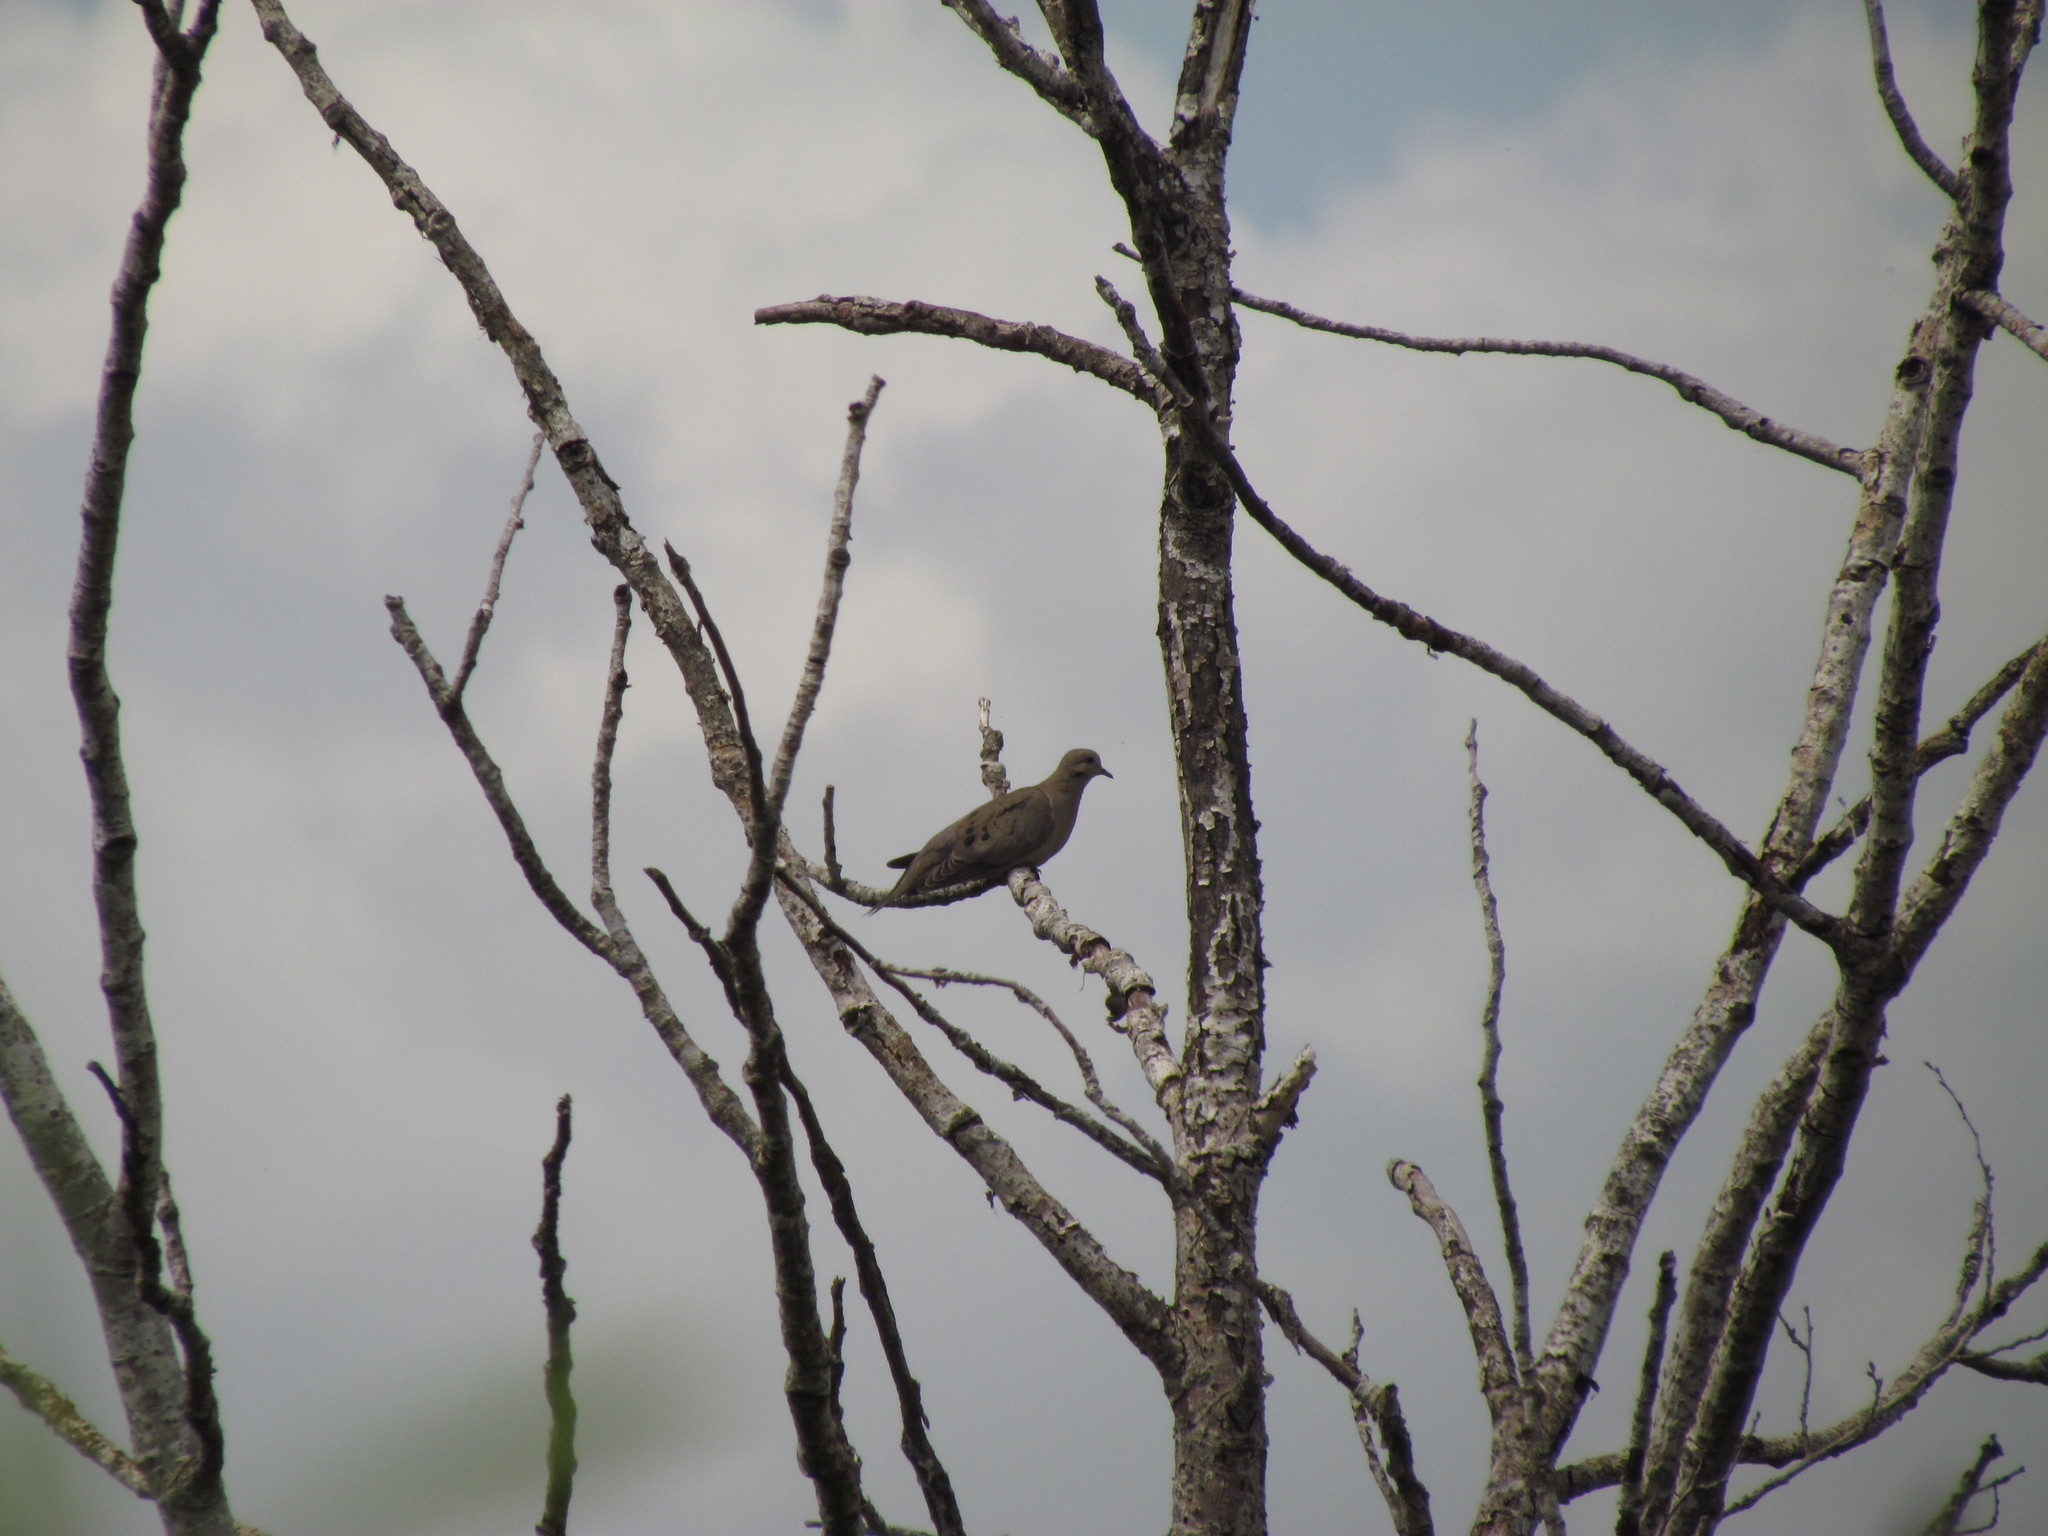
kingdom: Animalia
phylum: Chordata
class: Aves
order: Columbiformes
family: Columbidae
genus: Zenaida
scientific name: Zenaida auriculata
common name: Eared dove
